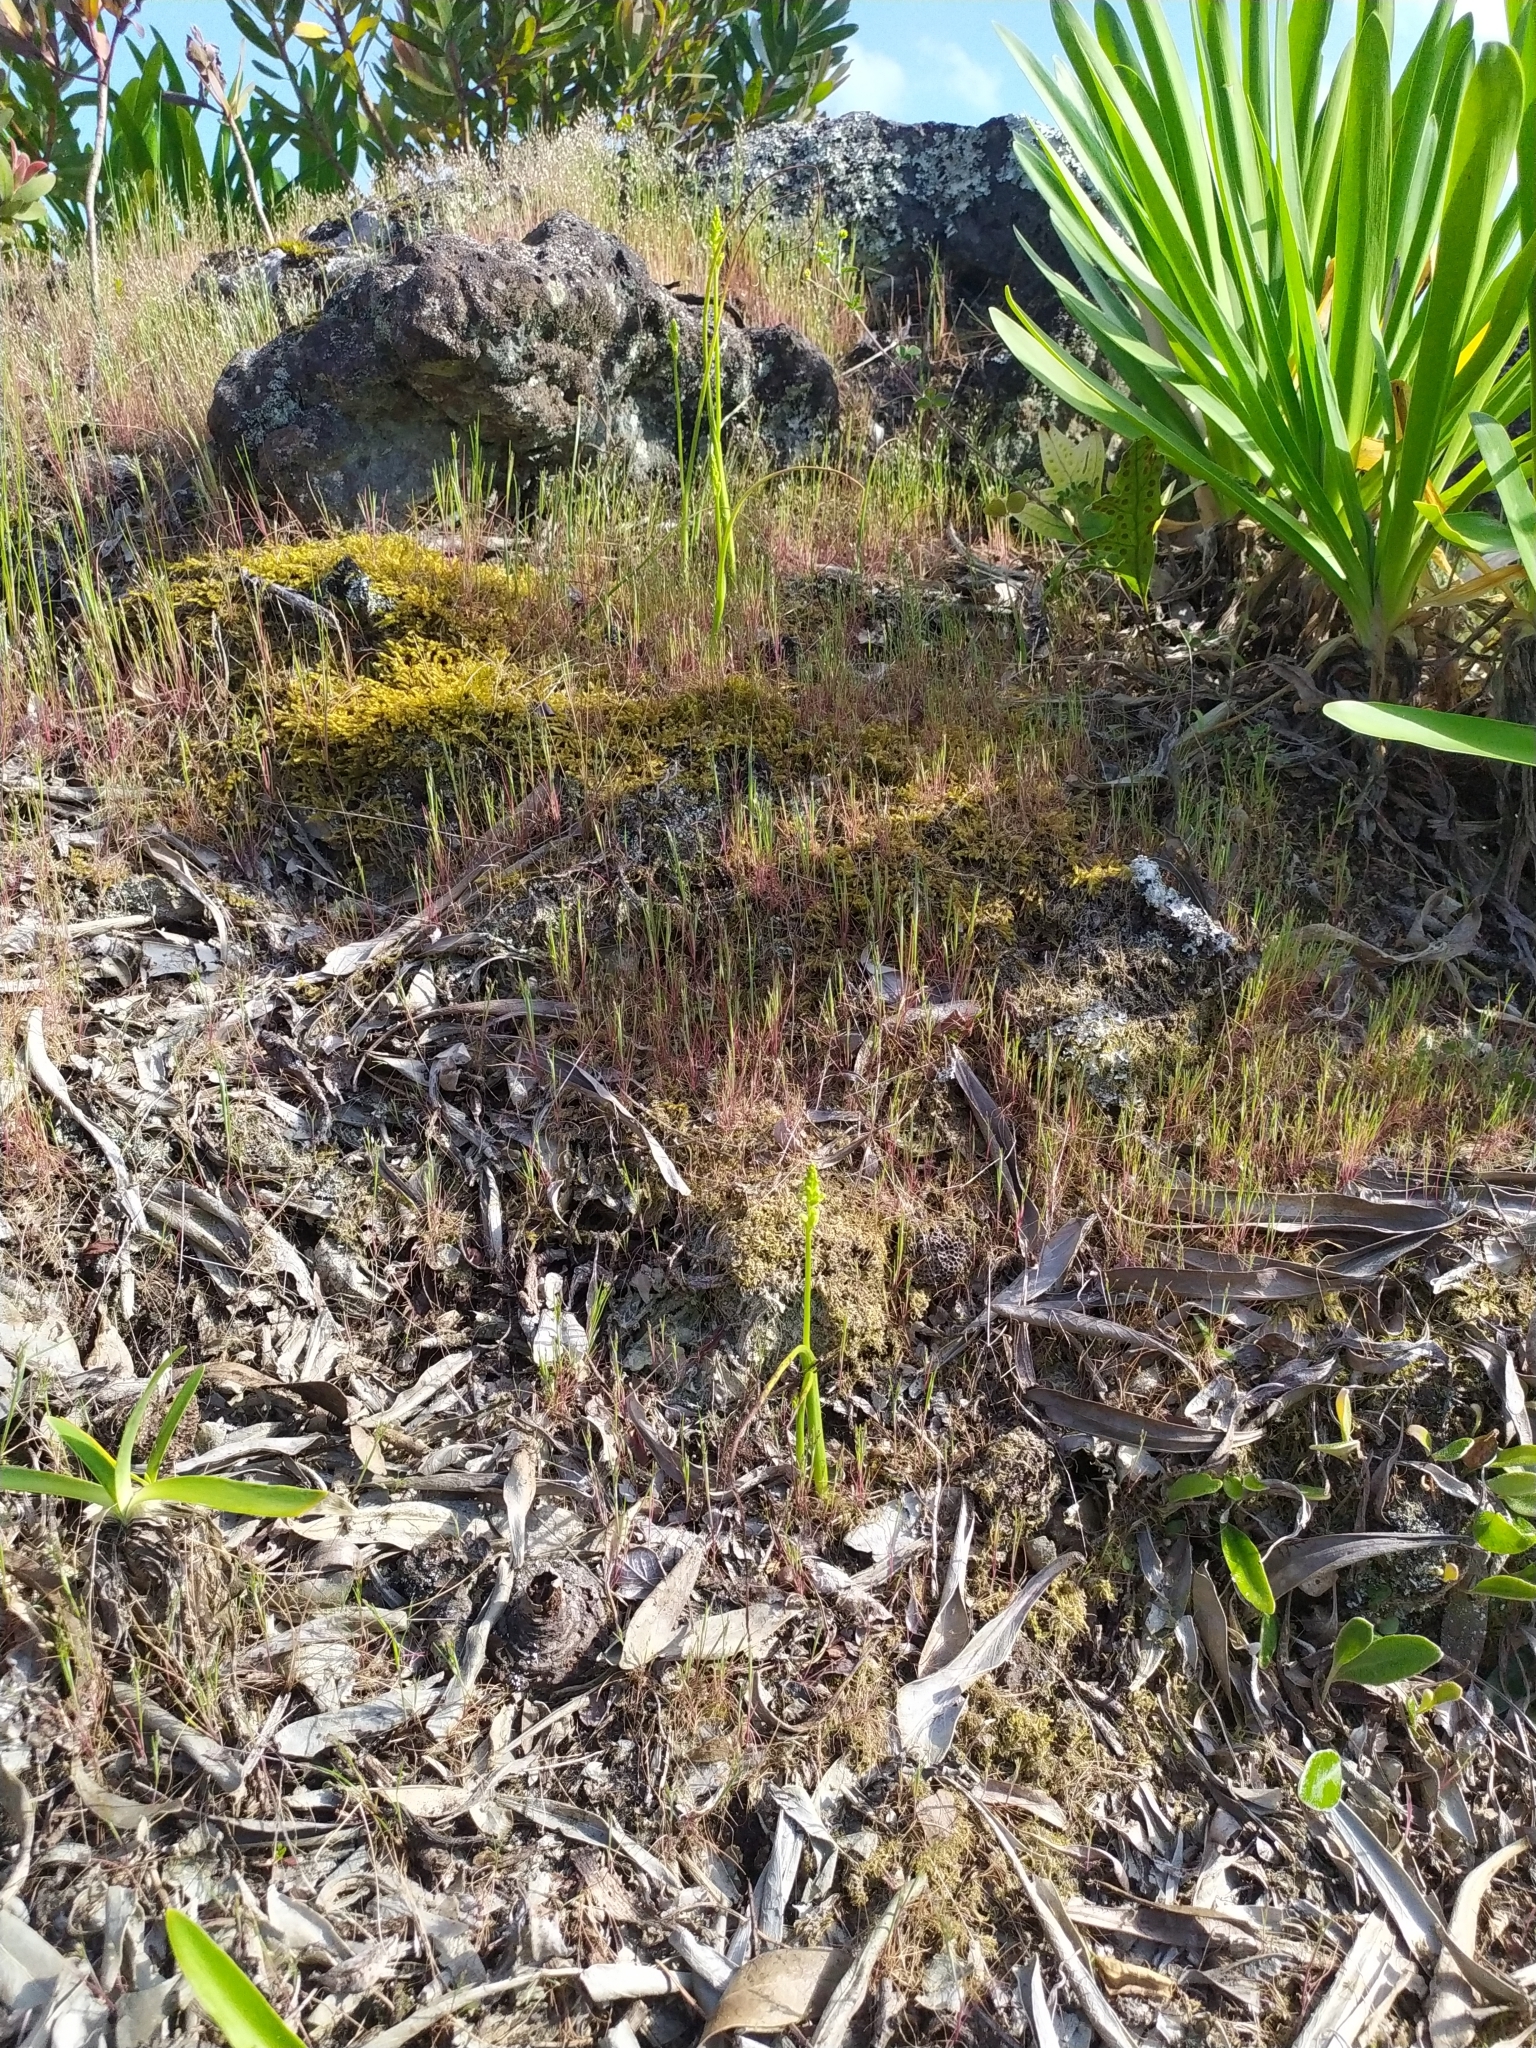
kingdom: Plantae
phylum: Tracheophyta
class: Liliopsida
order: Asparagales
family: Orchidaceae
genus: Microtis
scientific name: Microtis unifolia
